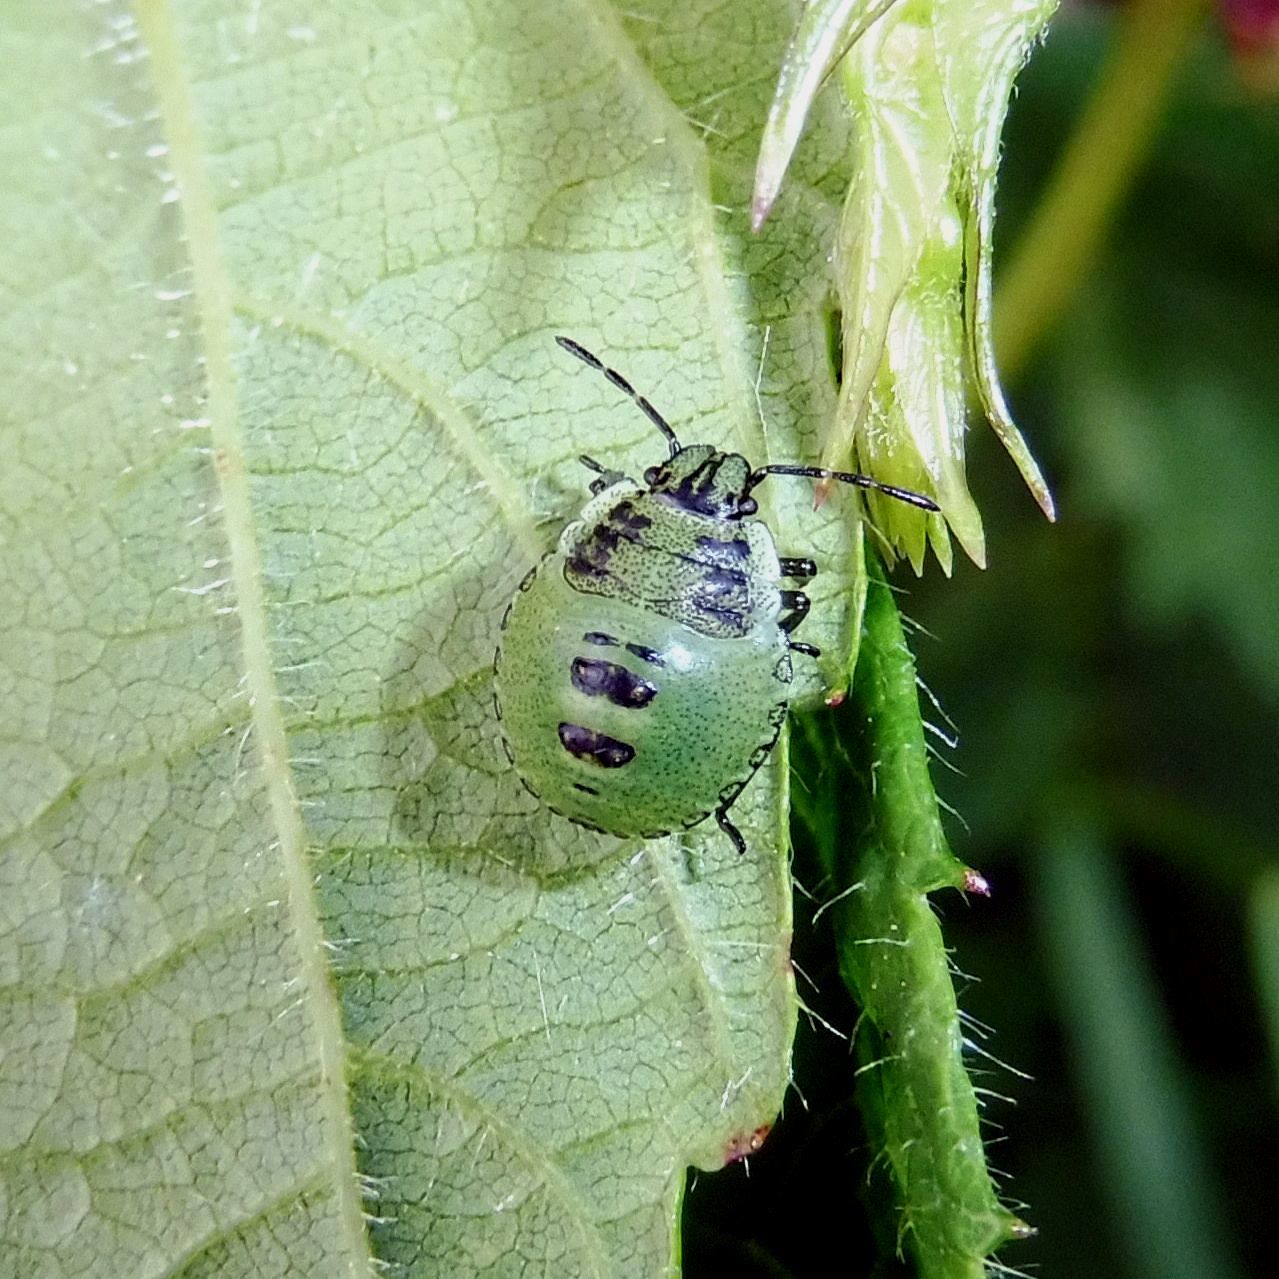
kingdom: Animalia
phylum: Arthropoda
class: Insecta
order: Hemiptera
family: Pentatomidae
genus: Palomena
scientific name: Palomena prasina
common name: Green shieldbug
